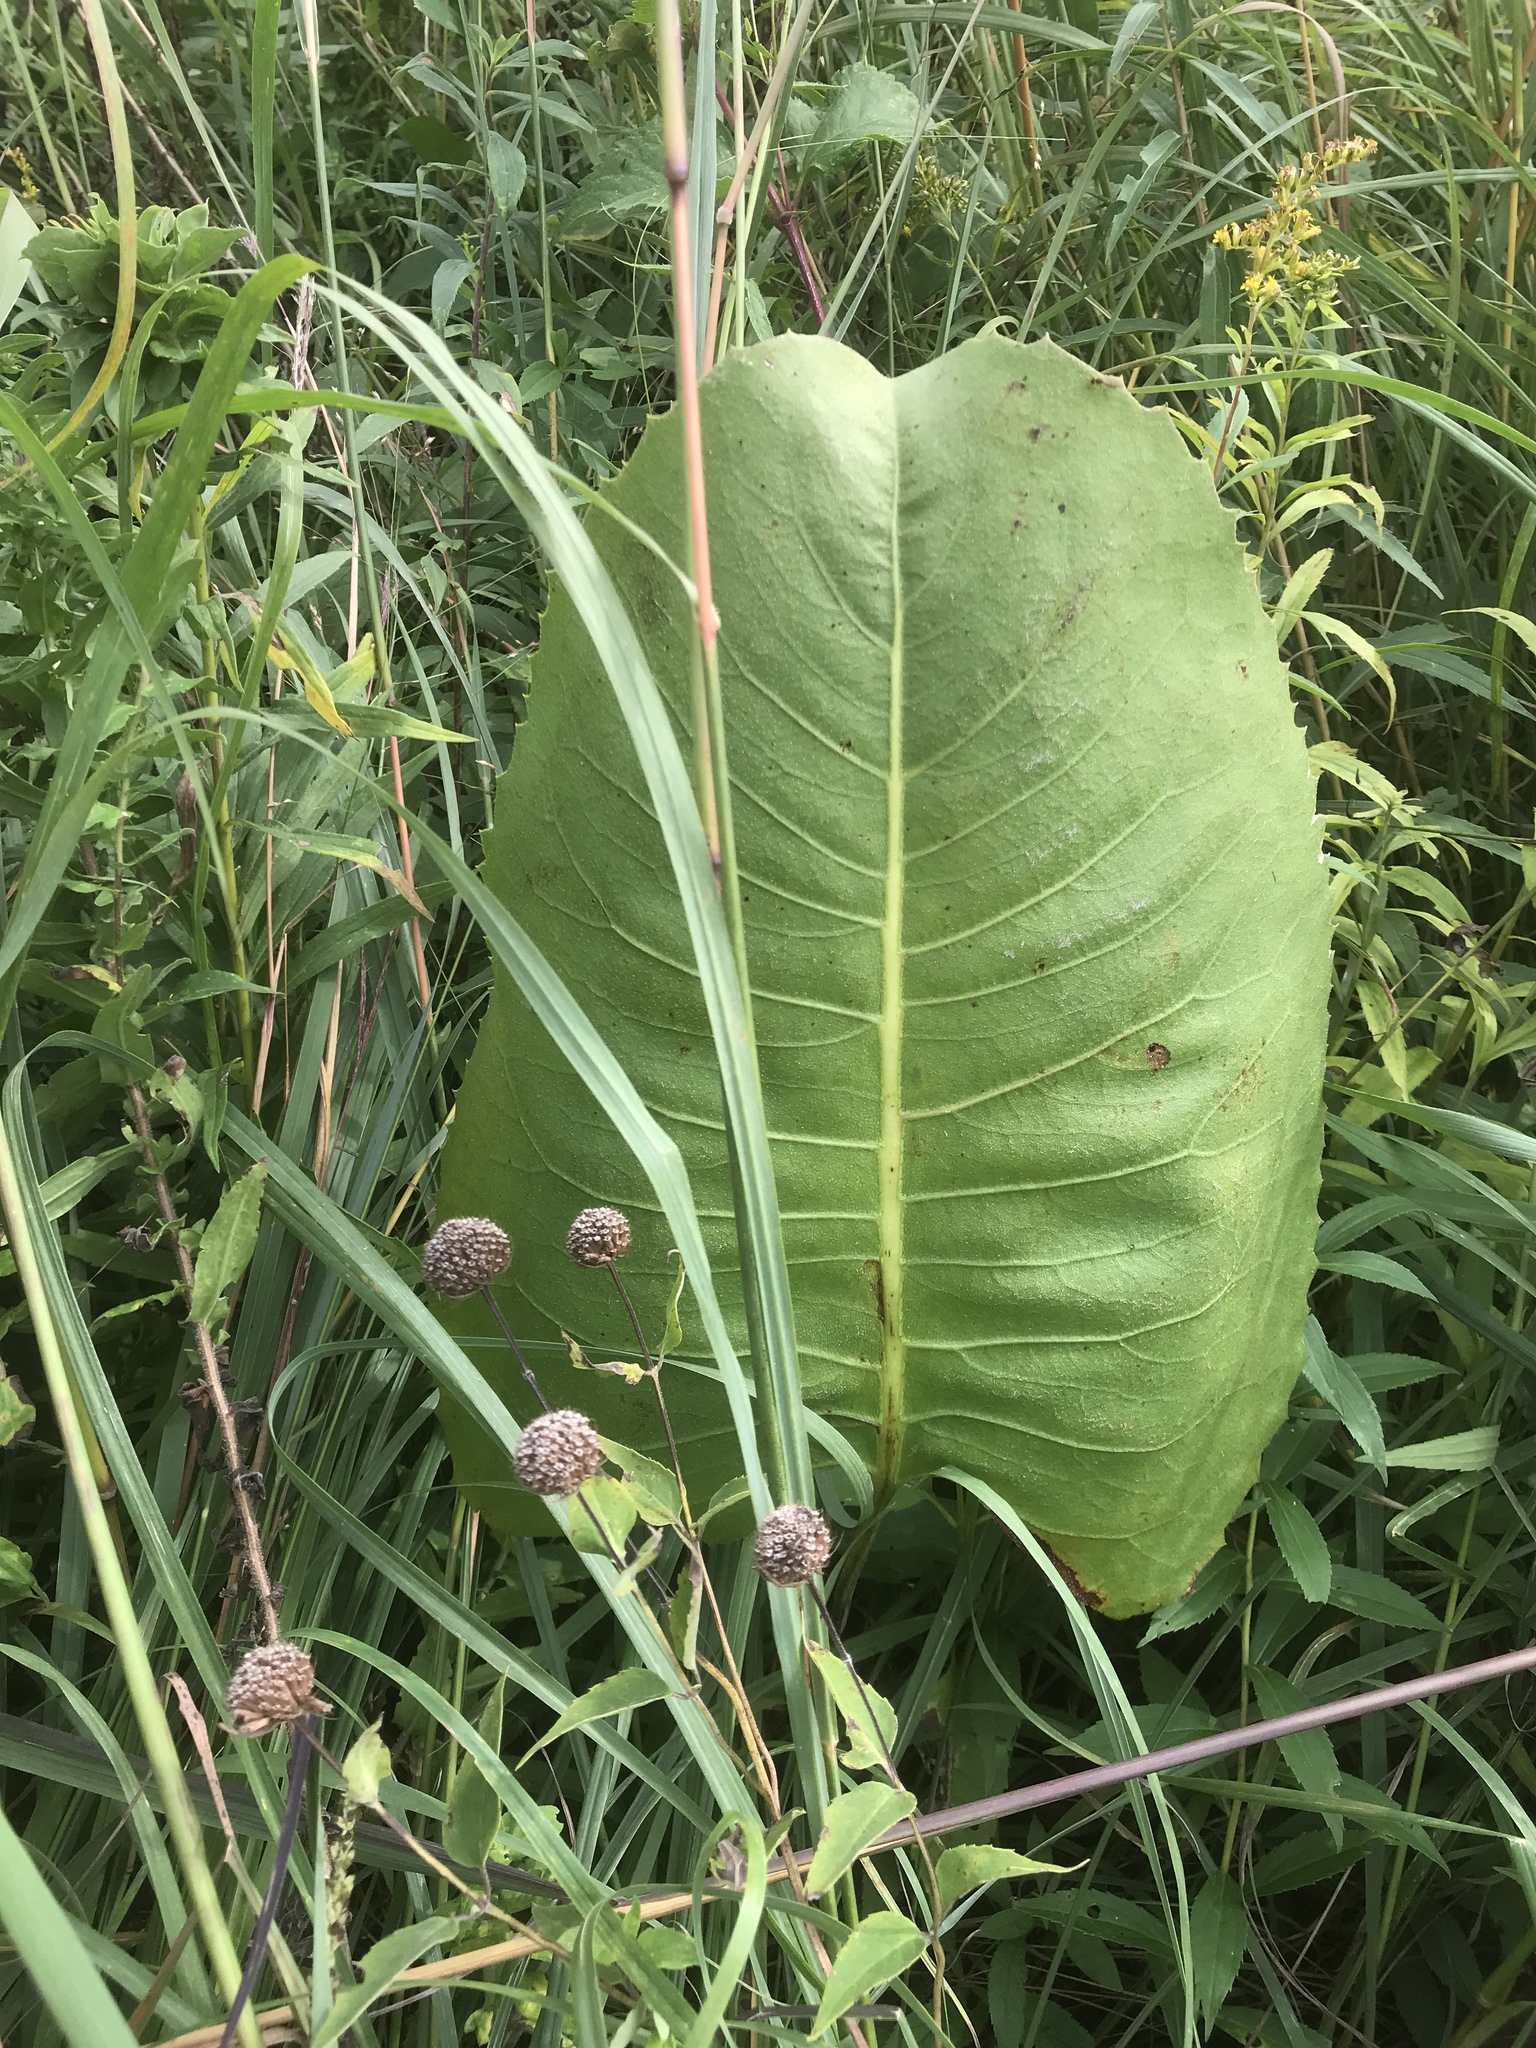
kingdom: Plantae
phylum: Tracheophyta
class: Magnoliopsida
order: Asterales
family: Asteraceae
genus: Silphium
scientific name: Silphium terebinthinaceum
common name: Basal-leaf rosinweed
